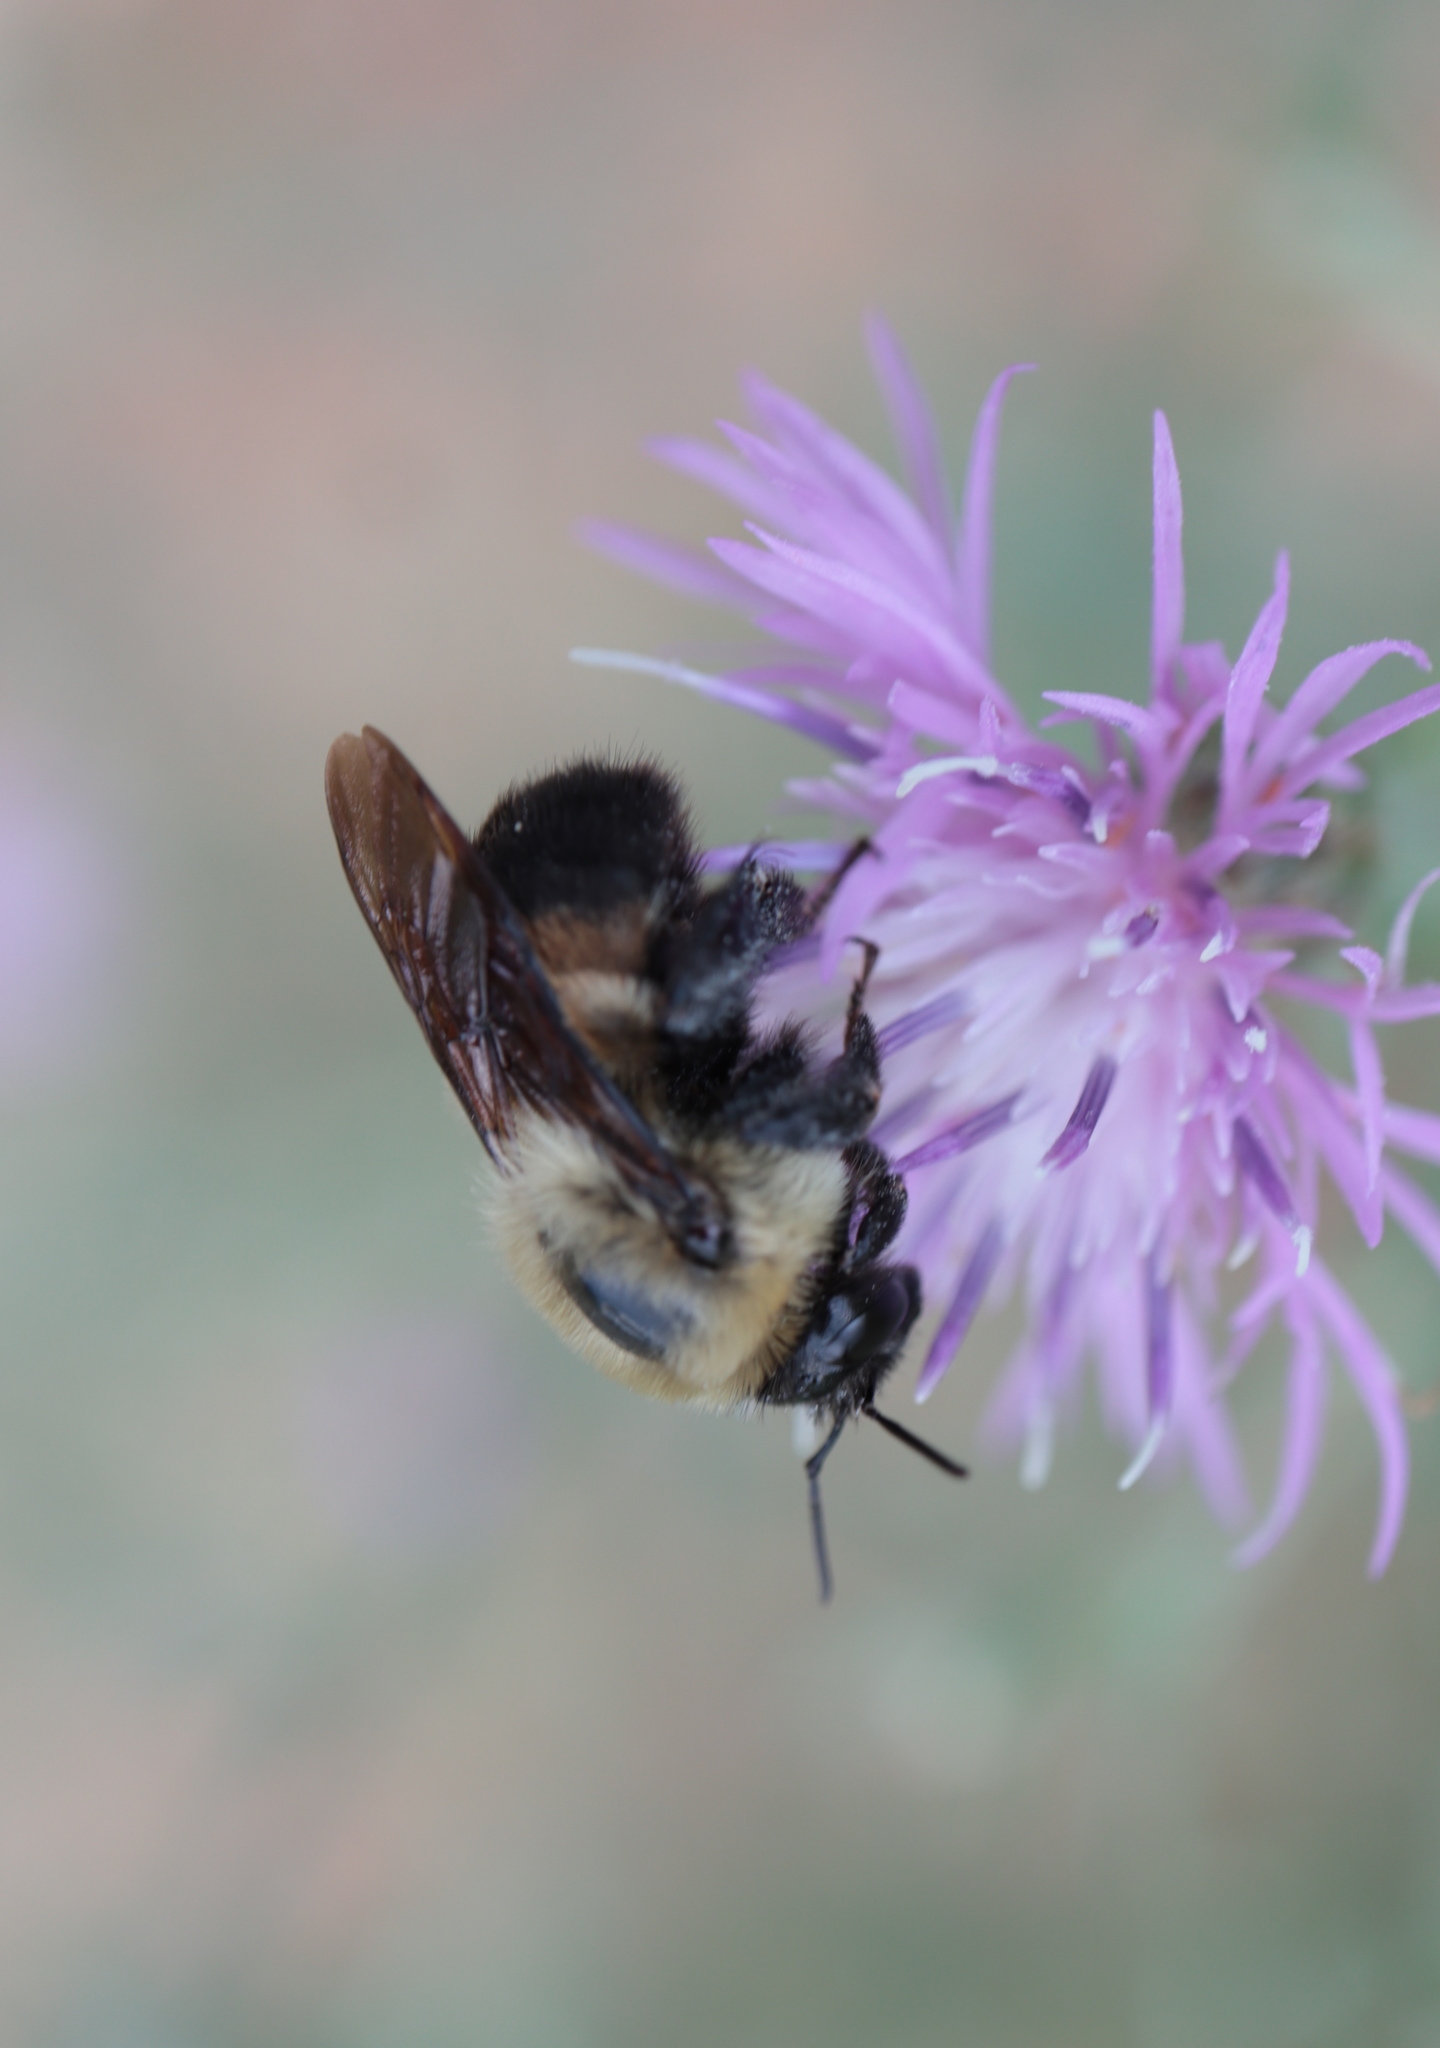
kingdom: Animalia
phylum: Arthropoda
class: Insecta
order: Hymenoptera
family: Apidae
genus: Bombus
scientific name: Bombus griseocollis
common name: Brown-belted bumble bee
